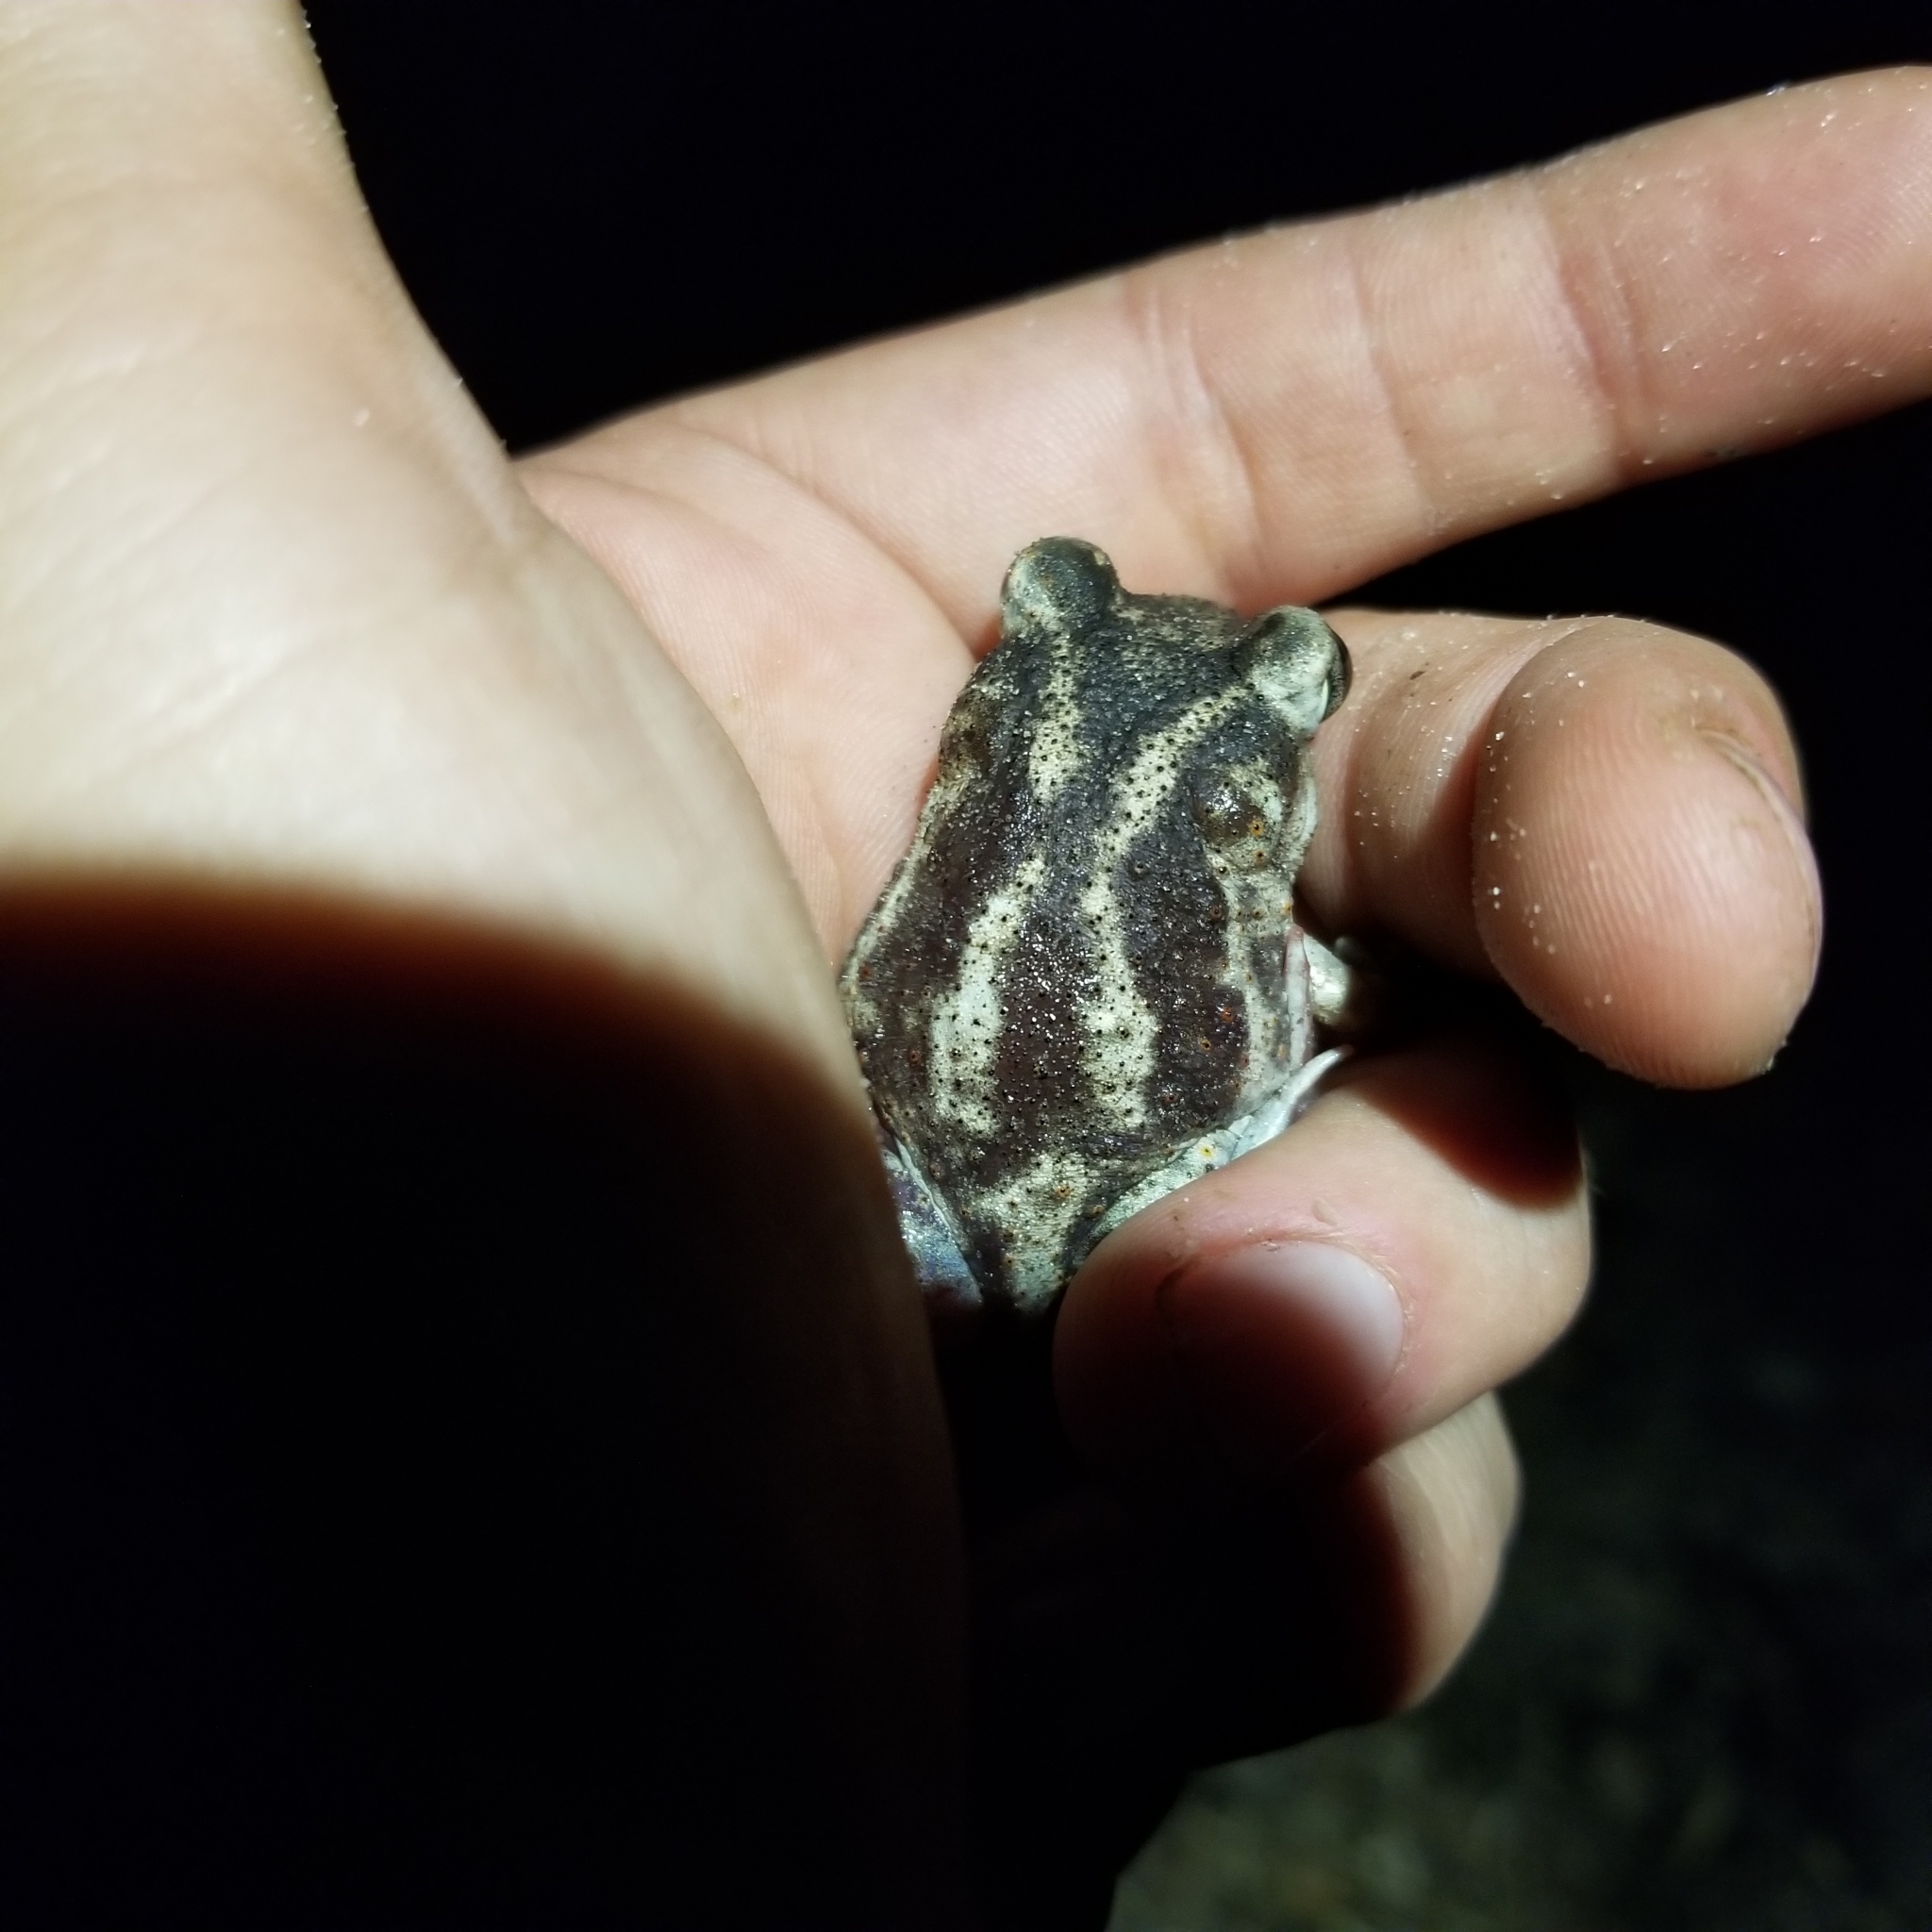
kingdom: Animalia
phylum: Chordata
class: Amphibia
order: Anura
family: Scaphiopodidae
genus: Scaphiopus
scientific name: Scaphiopus holbrookii
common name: Eastern spadefoot toad
